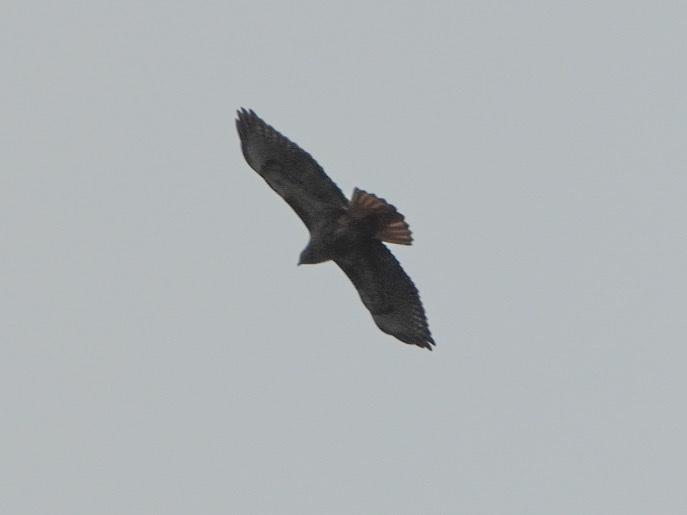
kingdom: Animalia
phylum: Chordata
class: Aves
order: Accipitriformes
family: Accipitridae
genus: Buteo
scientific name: Buteo jamaicensis
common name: Red-tailed hawk
